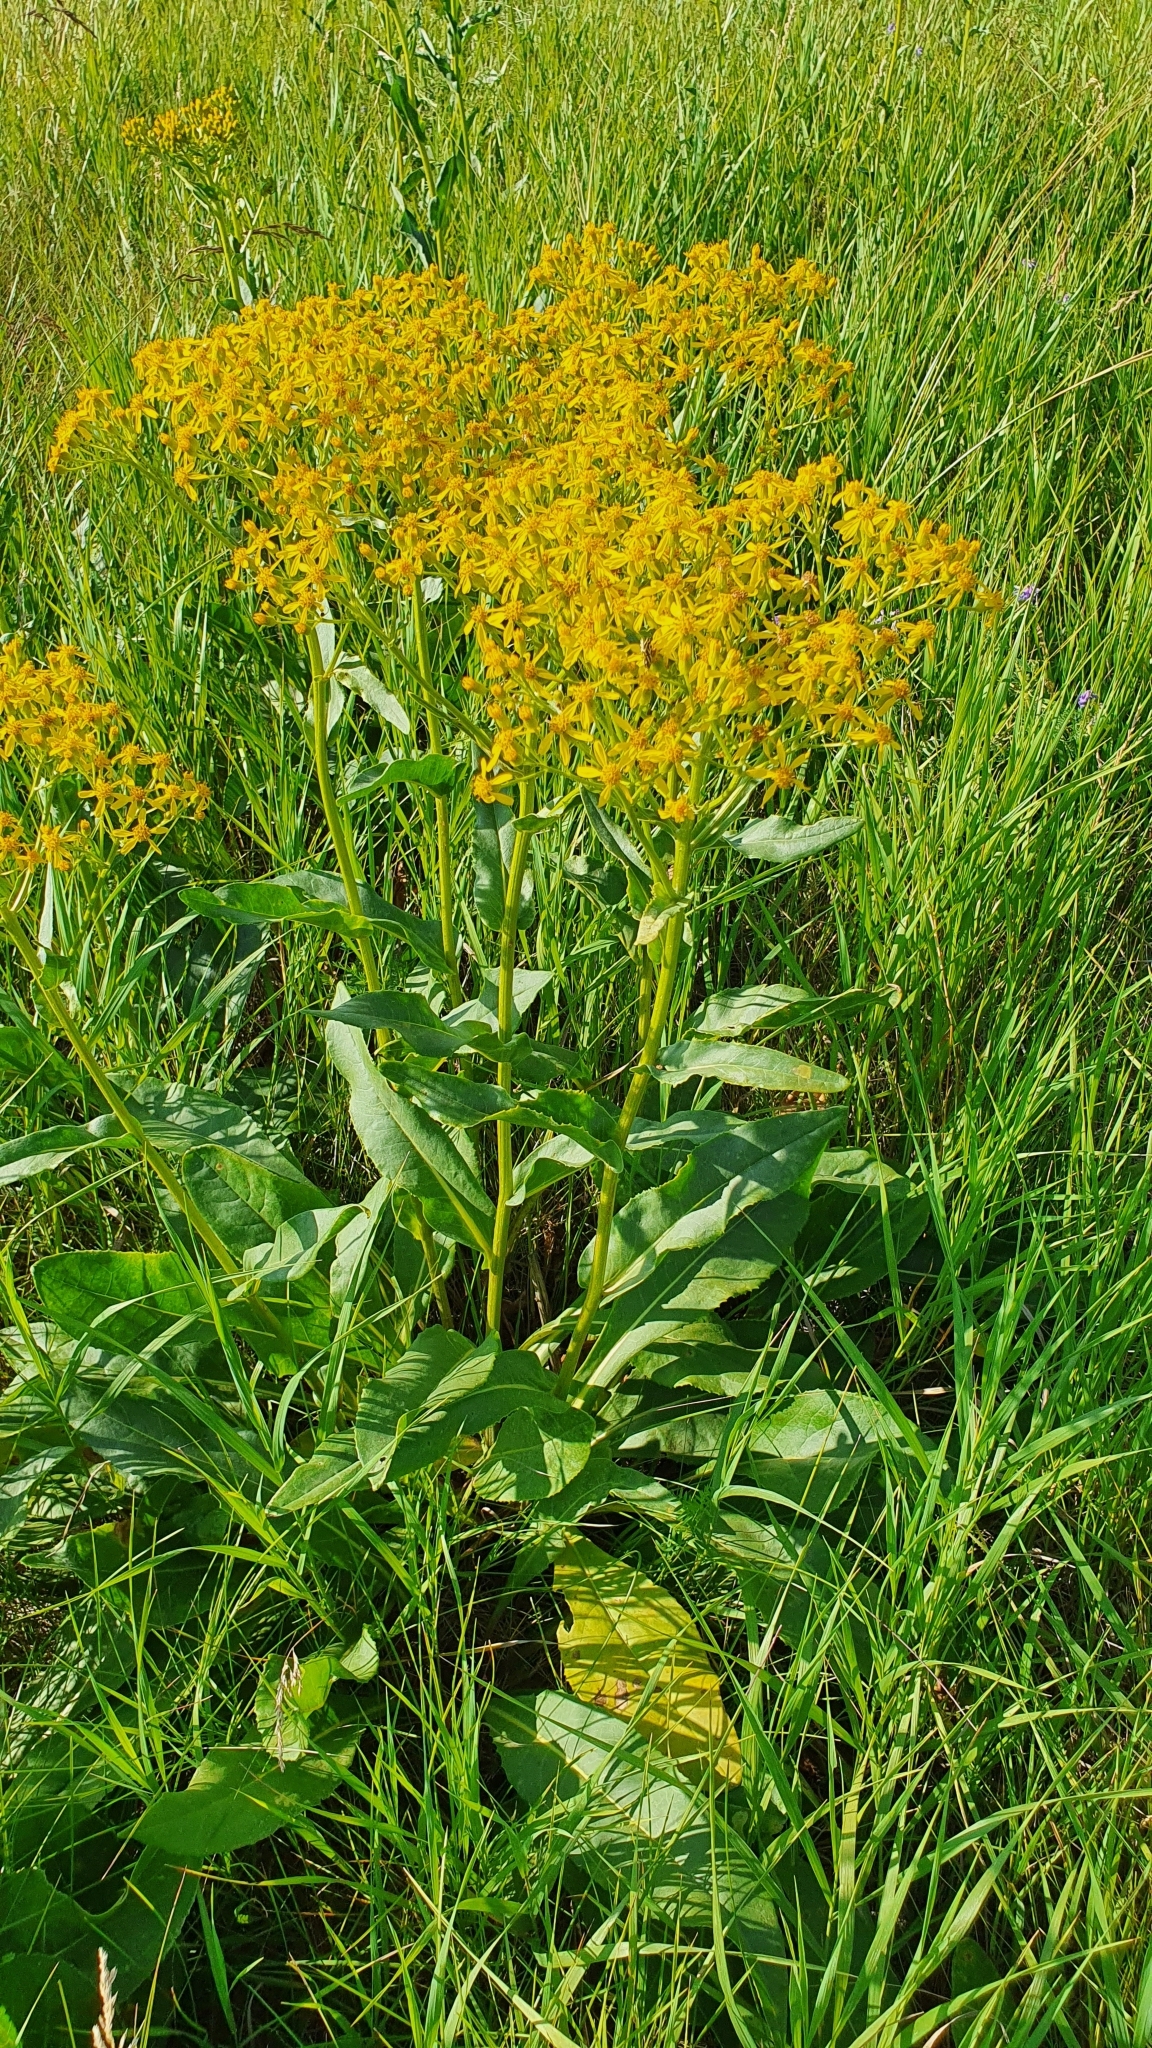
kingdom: Plantae
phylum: Tracheophyta
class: Magnoliopsida
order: Asterales
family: Asteraceae
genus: Senecio
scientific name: Senecio doria
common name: Golden ragwort
